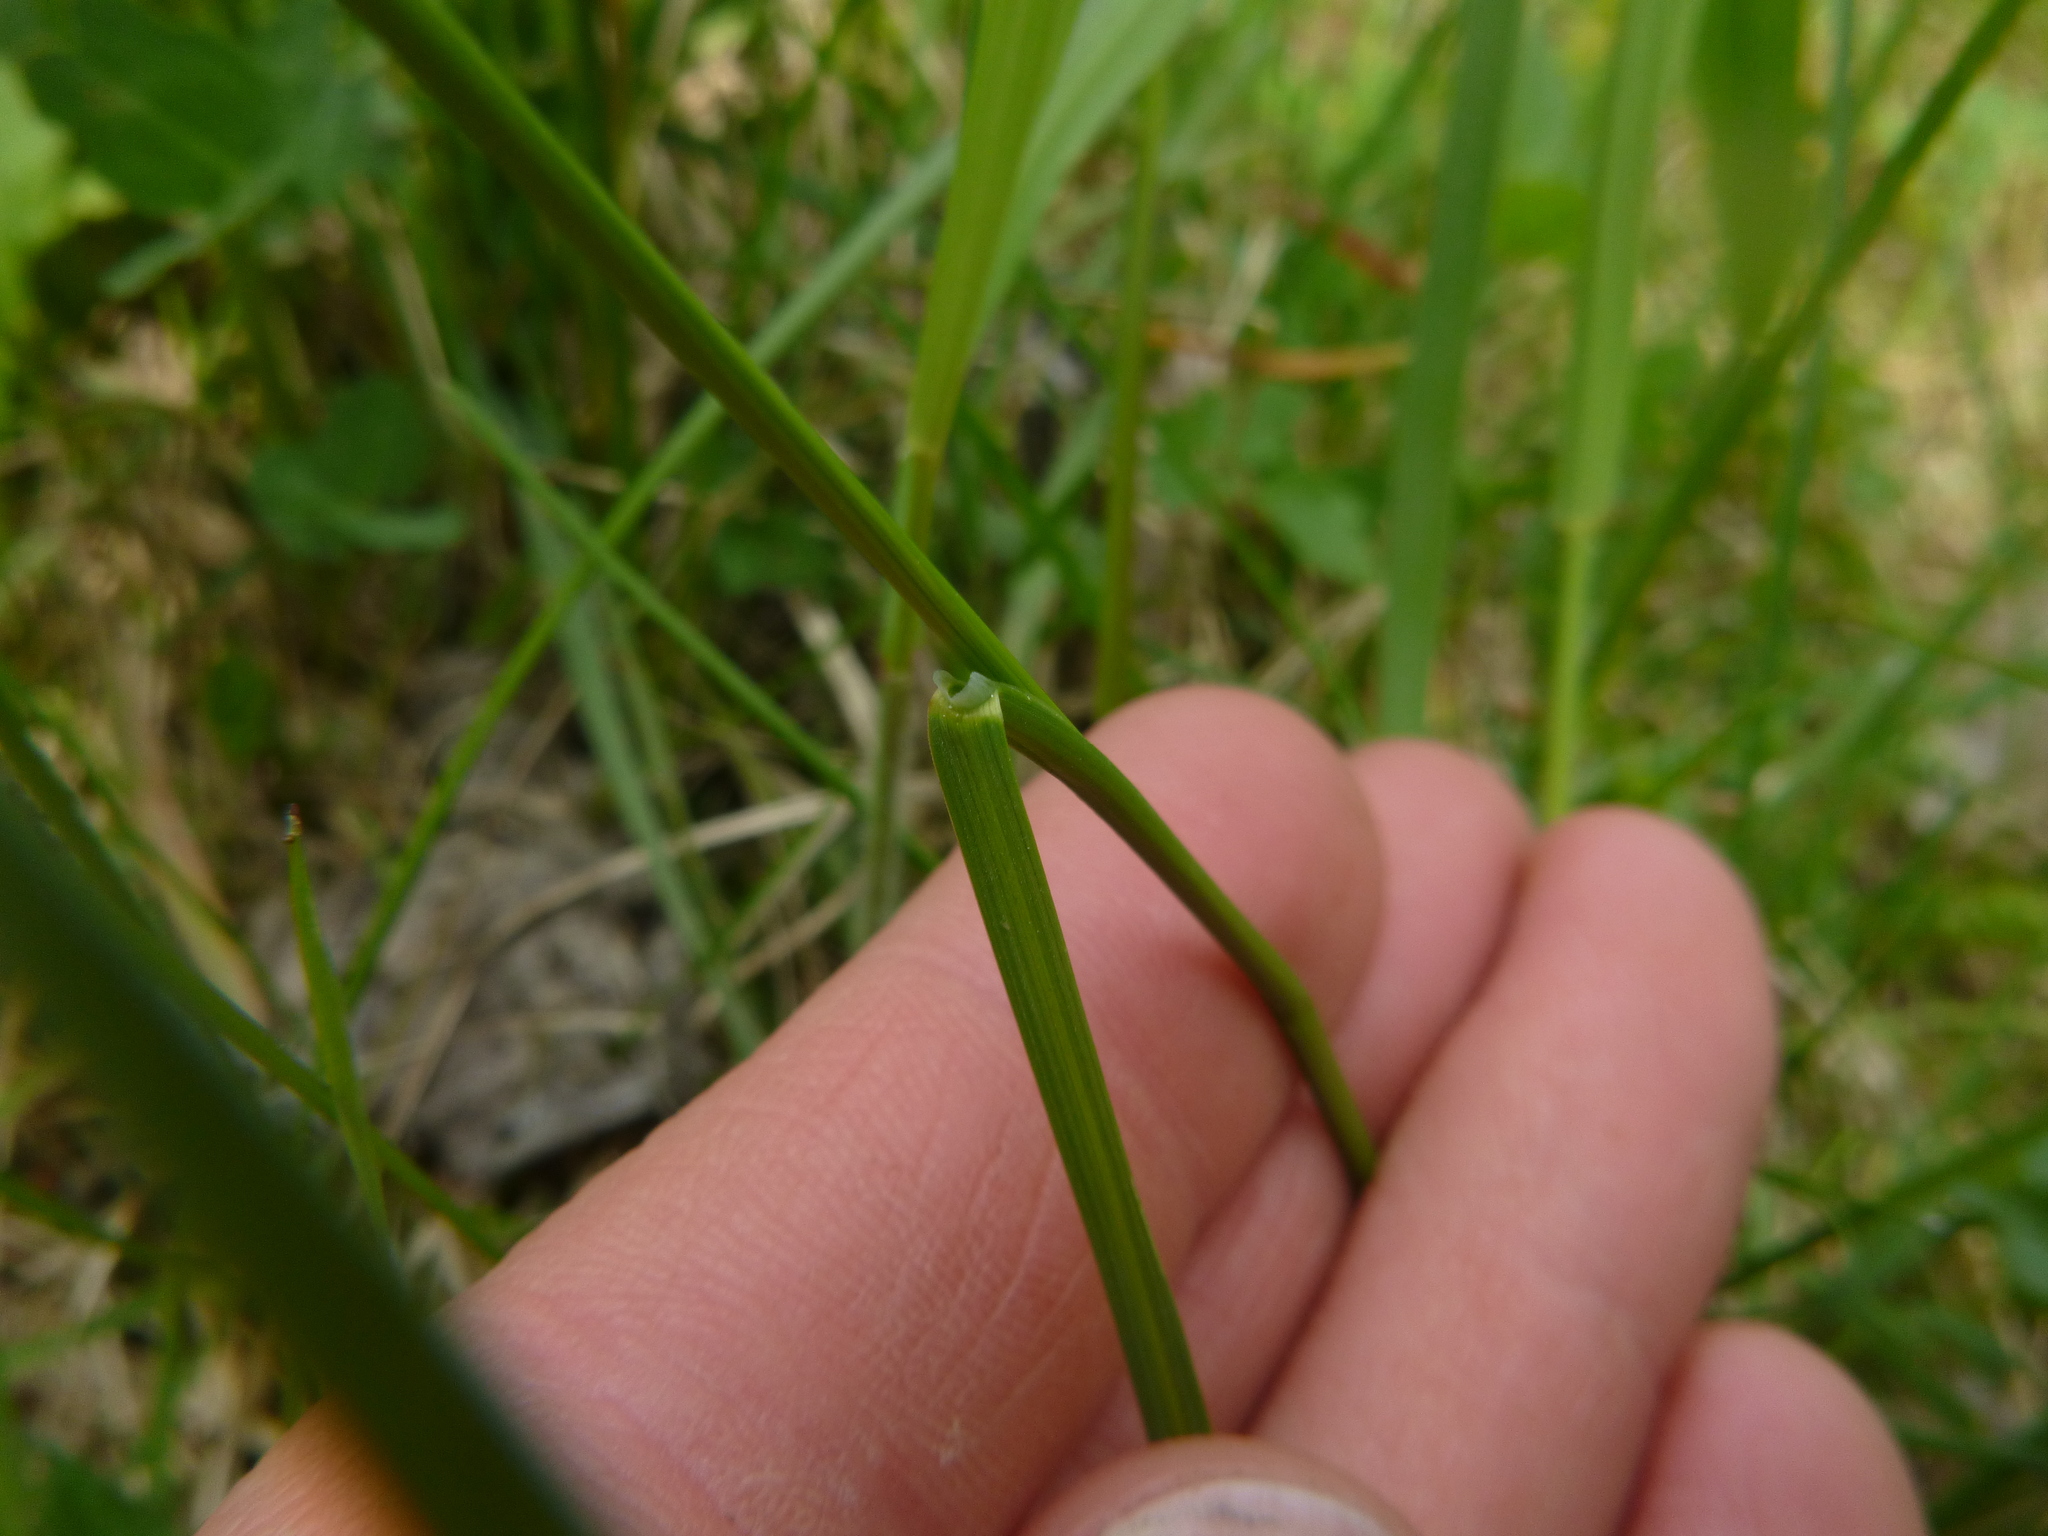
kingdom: Plantae
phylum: Tracheophyta
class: Liliopsida
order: Poales
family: Poaceae
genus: Poa
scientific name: Poa pratensis
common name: Kentucky bluegrass
